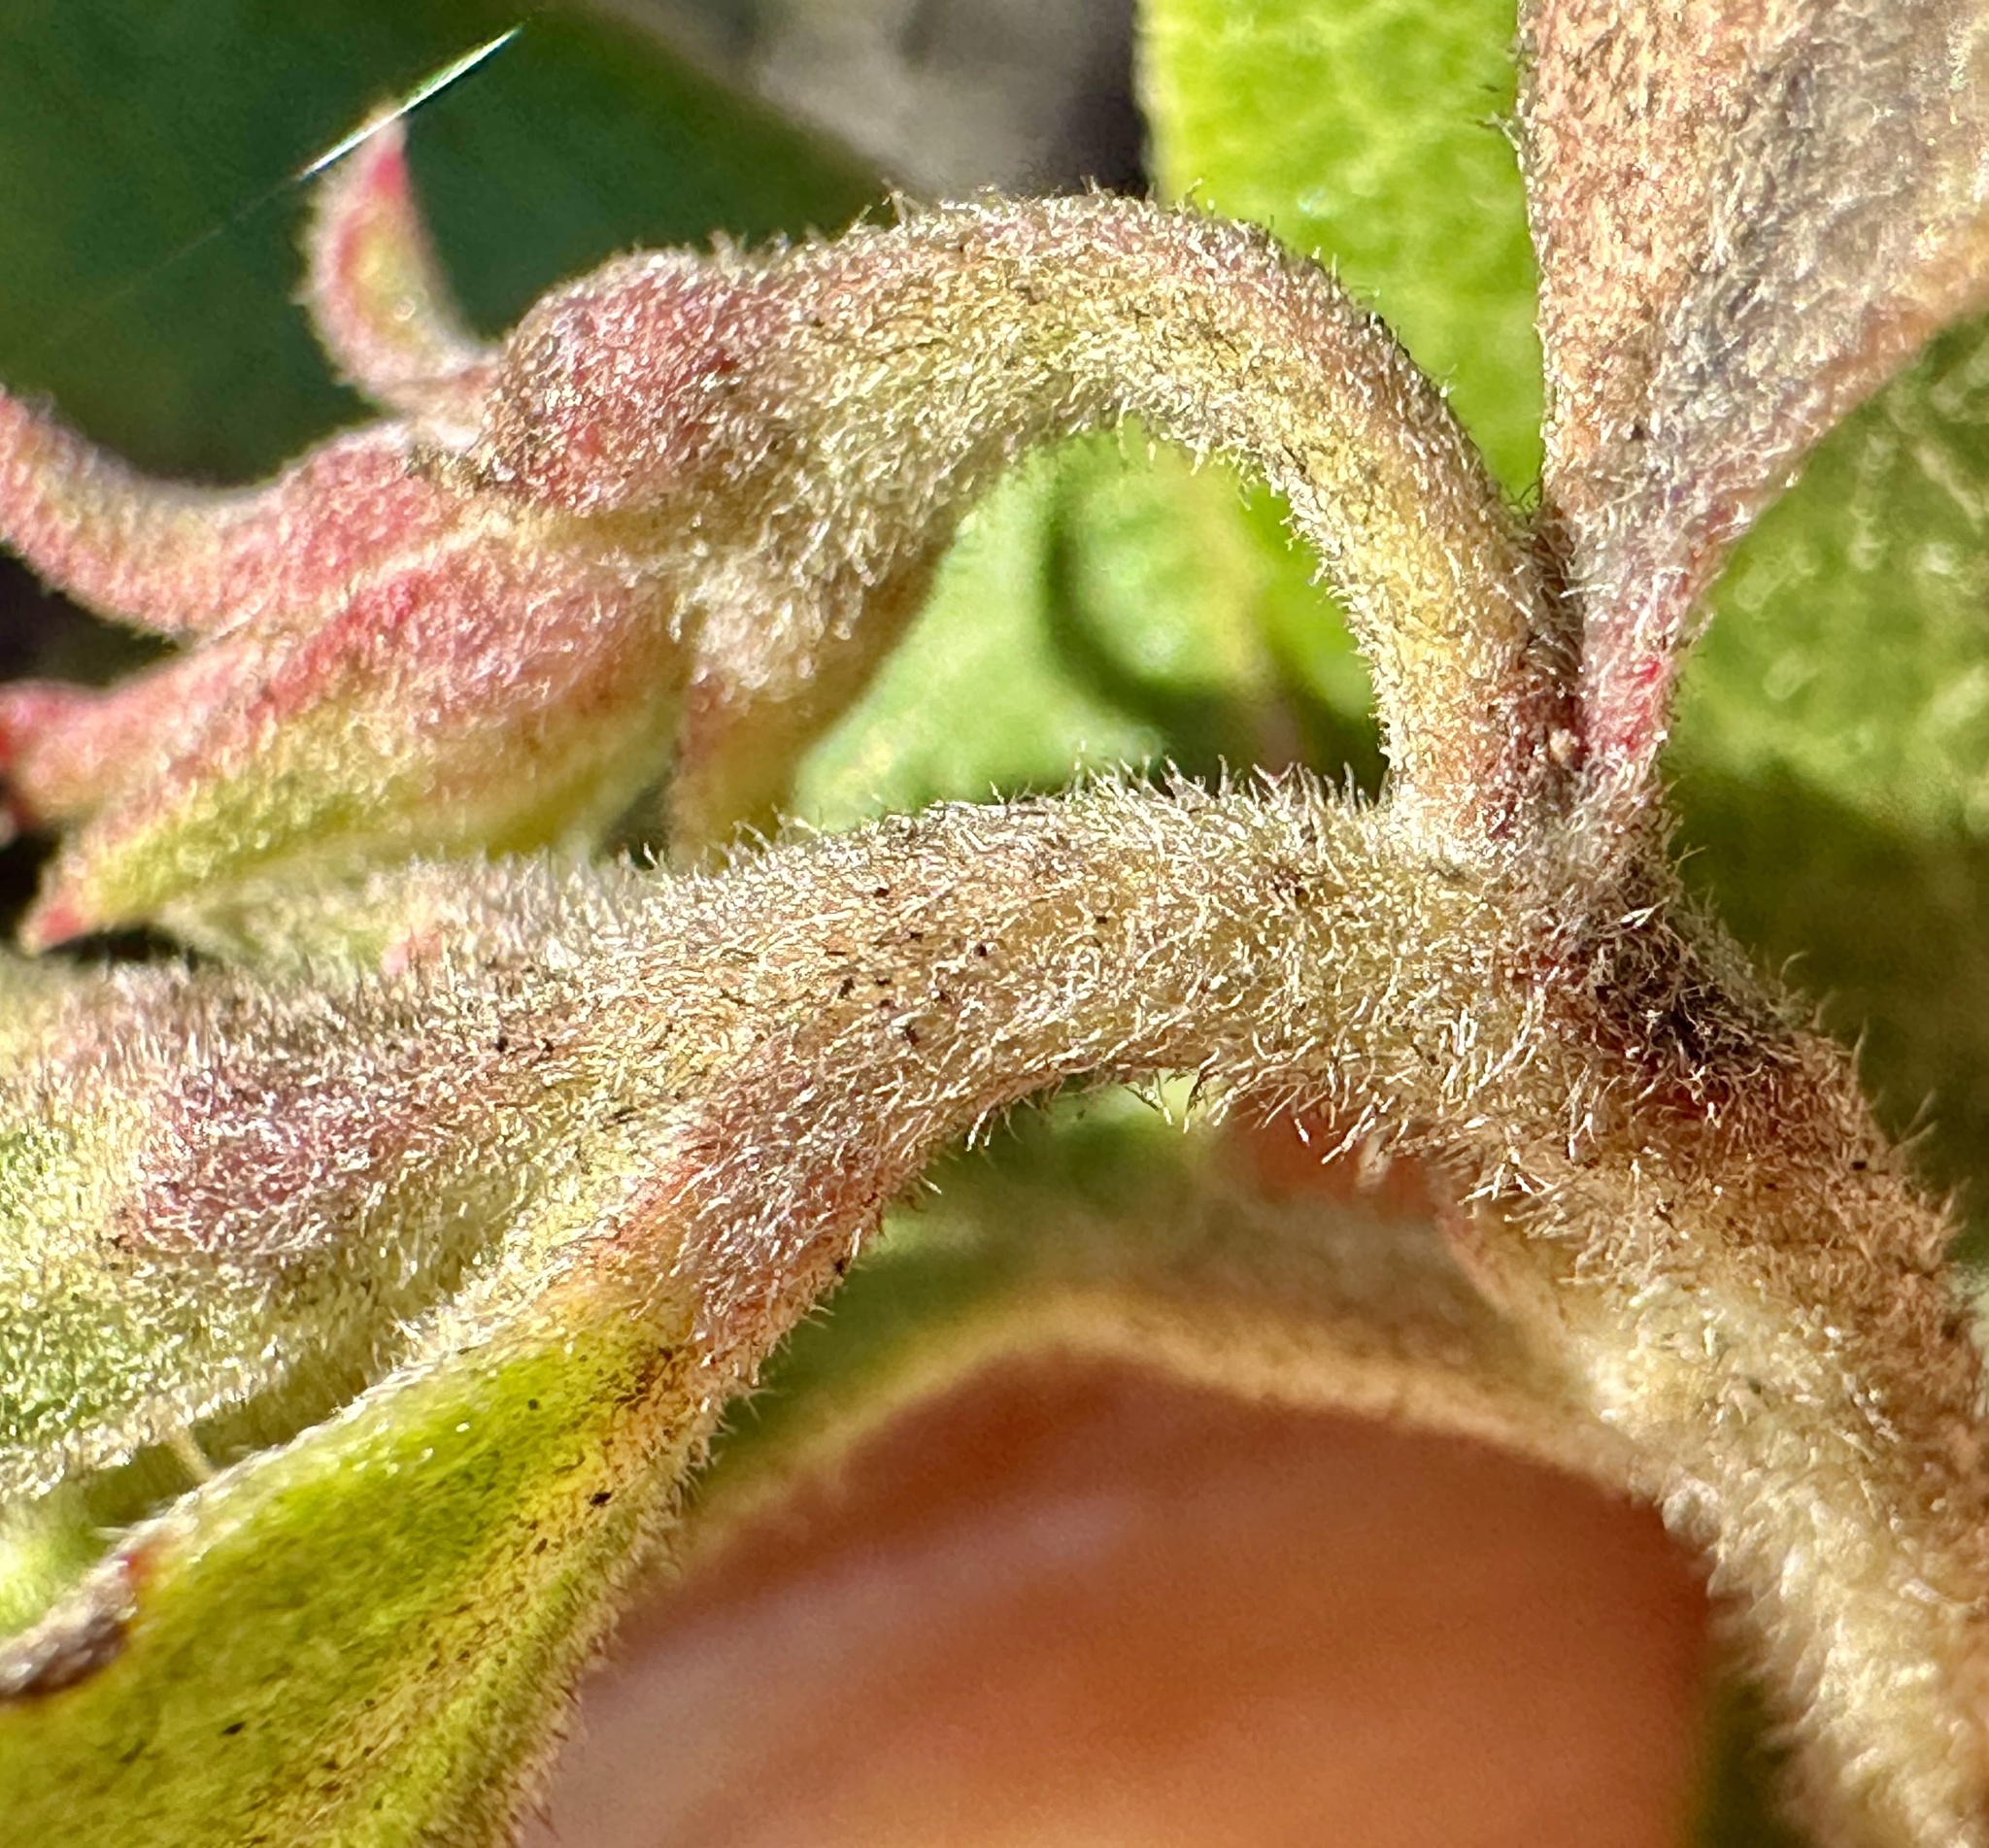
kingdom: Plantae
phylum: Tracheophyta
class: Magnoliopsida
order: Ericales
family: Ericaceae
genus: Arctostaphylos
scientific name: Arctostaphylos tomentosa
